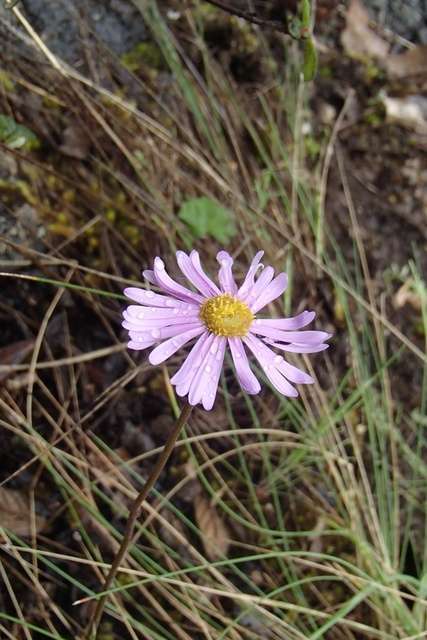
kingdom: Plantae
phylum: Tracheophyta
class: Magnoliopsida
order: Asterales
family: Asteraceae
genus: Brachyscome
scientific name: Brachyscome petrophila
